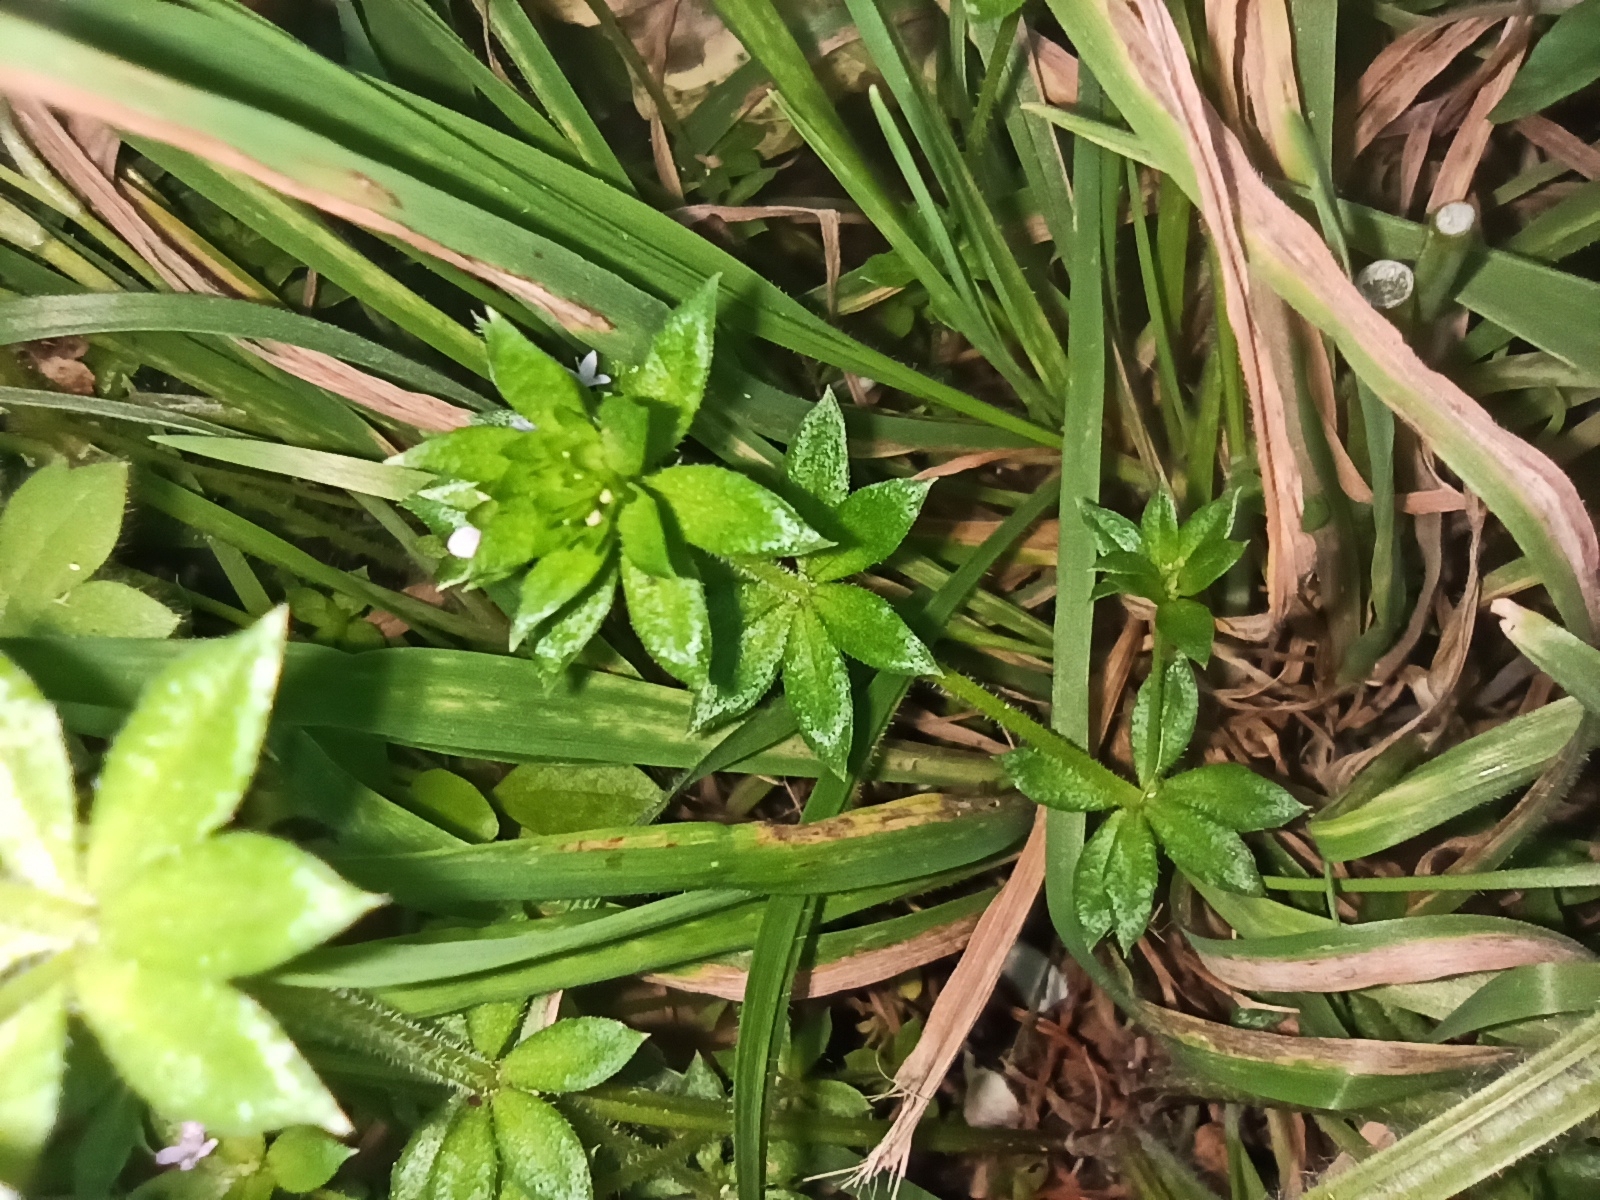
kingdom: Plantae
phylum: Tracheophyta
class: Magnoliopsida
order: Gentianales
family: Rubiaceae
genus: Sherardia
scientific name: Sherardia arvensis
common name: Field madder
